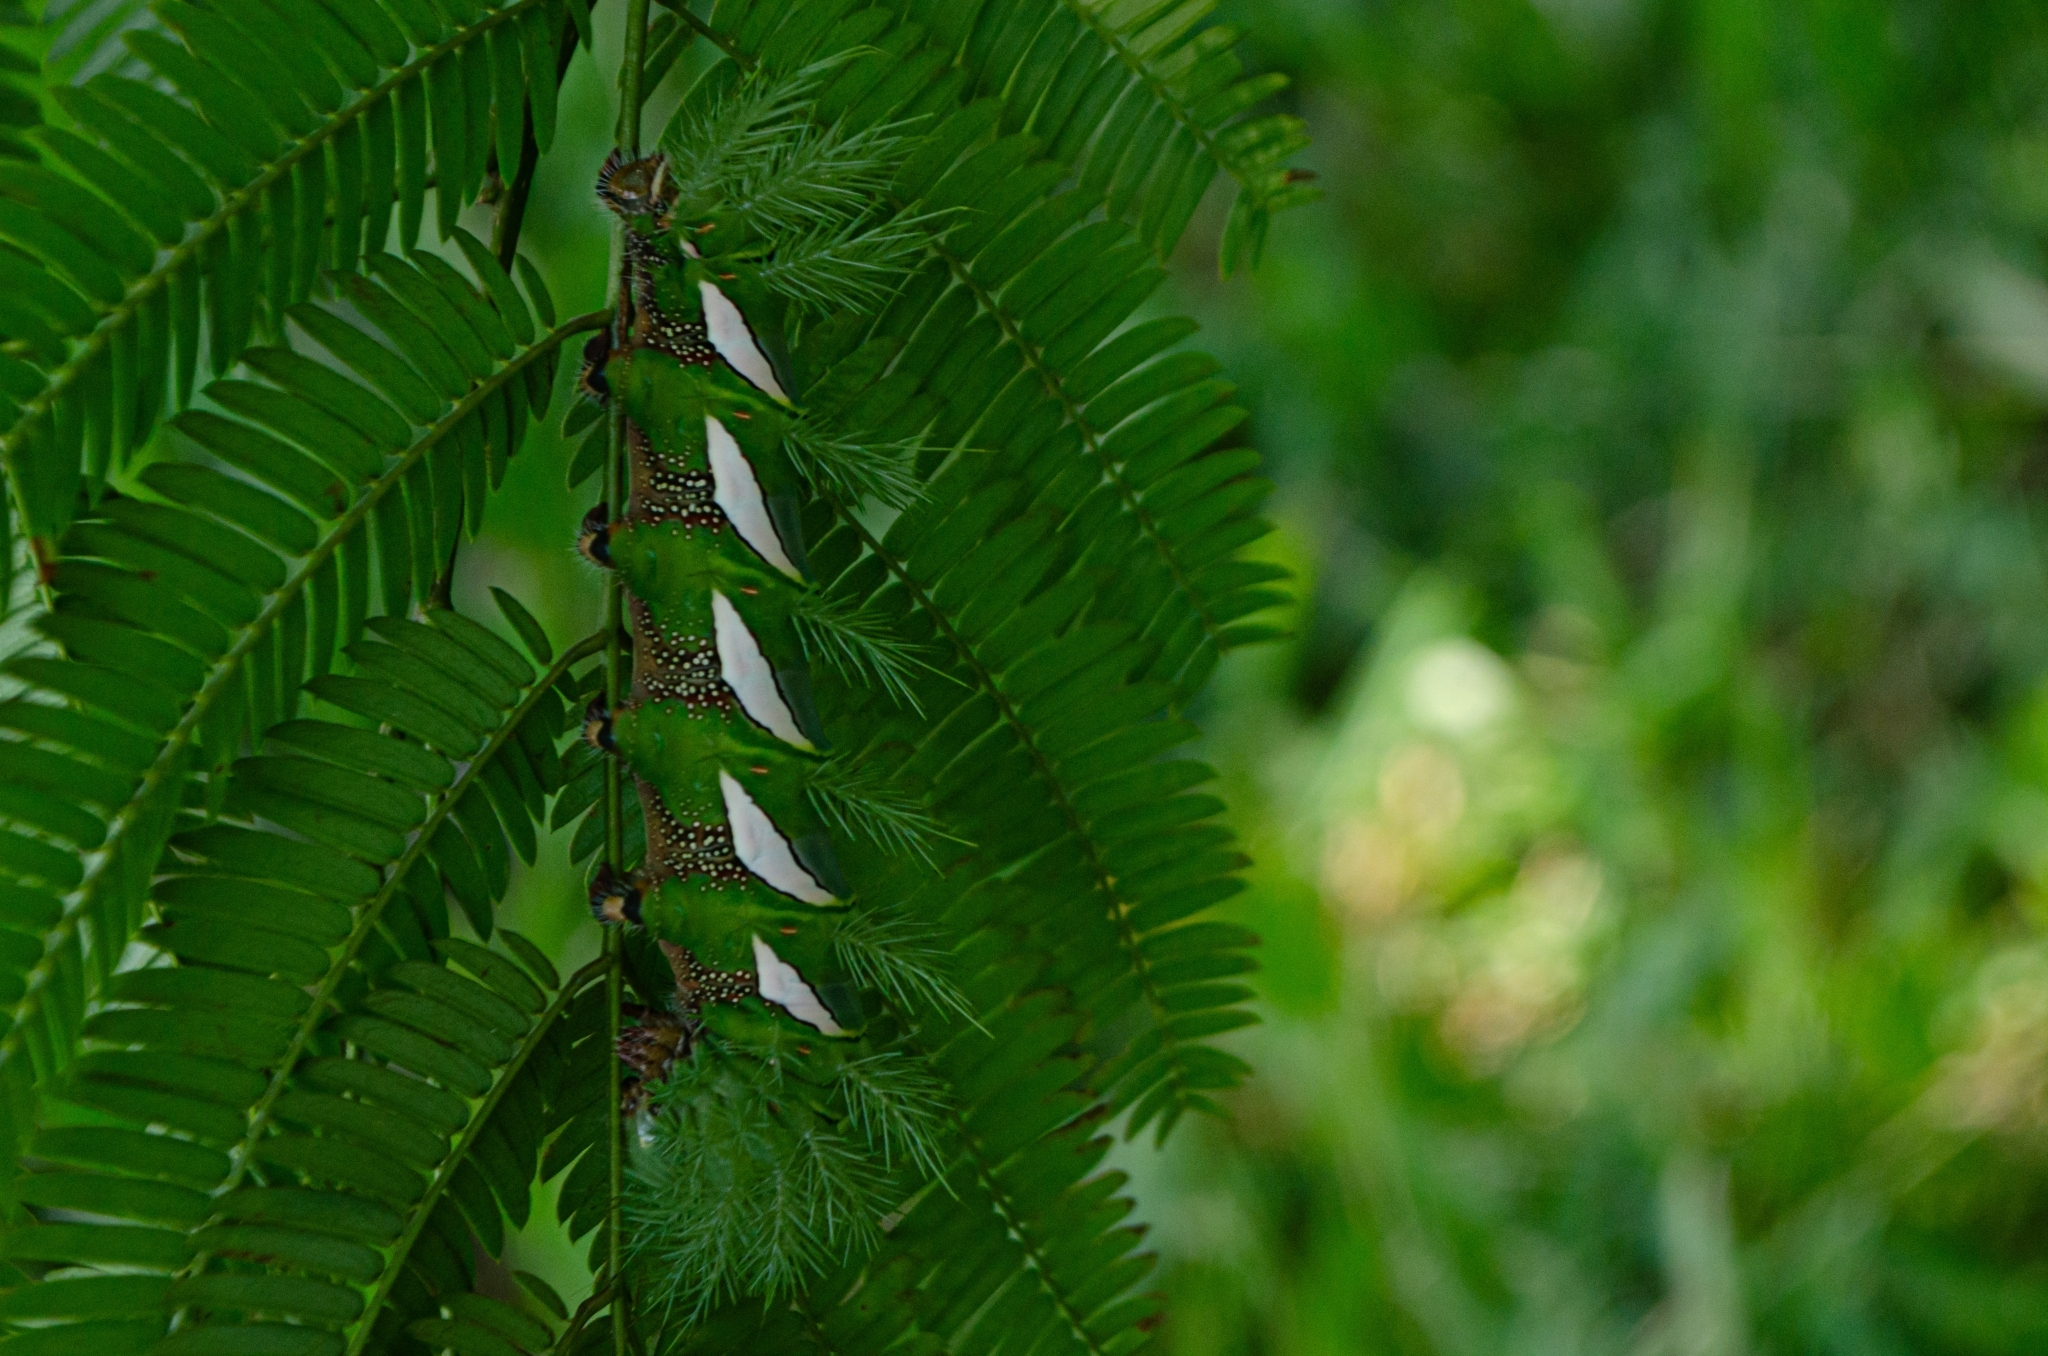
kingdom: Animalia
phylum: Arthropoda
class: Insecta
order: Lepidoptera
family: Saturniidae
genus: Automeris
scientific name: Automeris naranja
